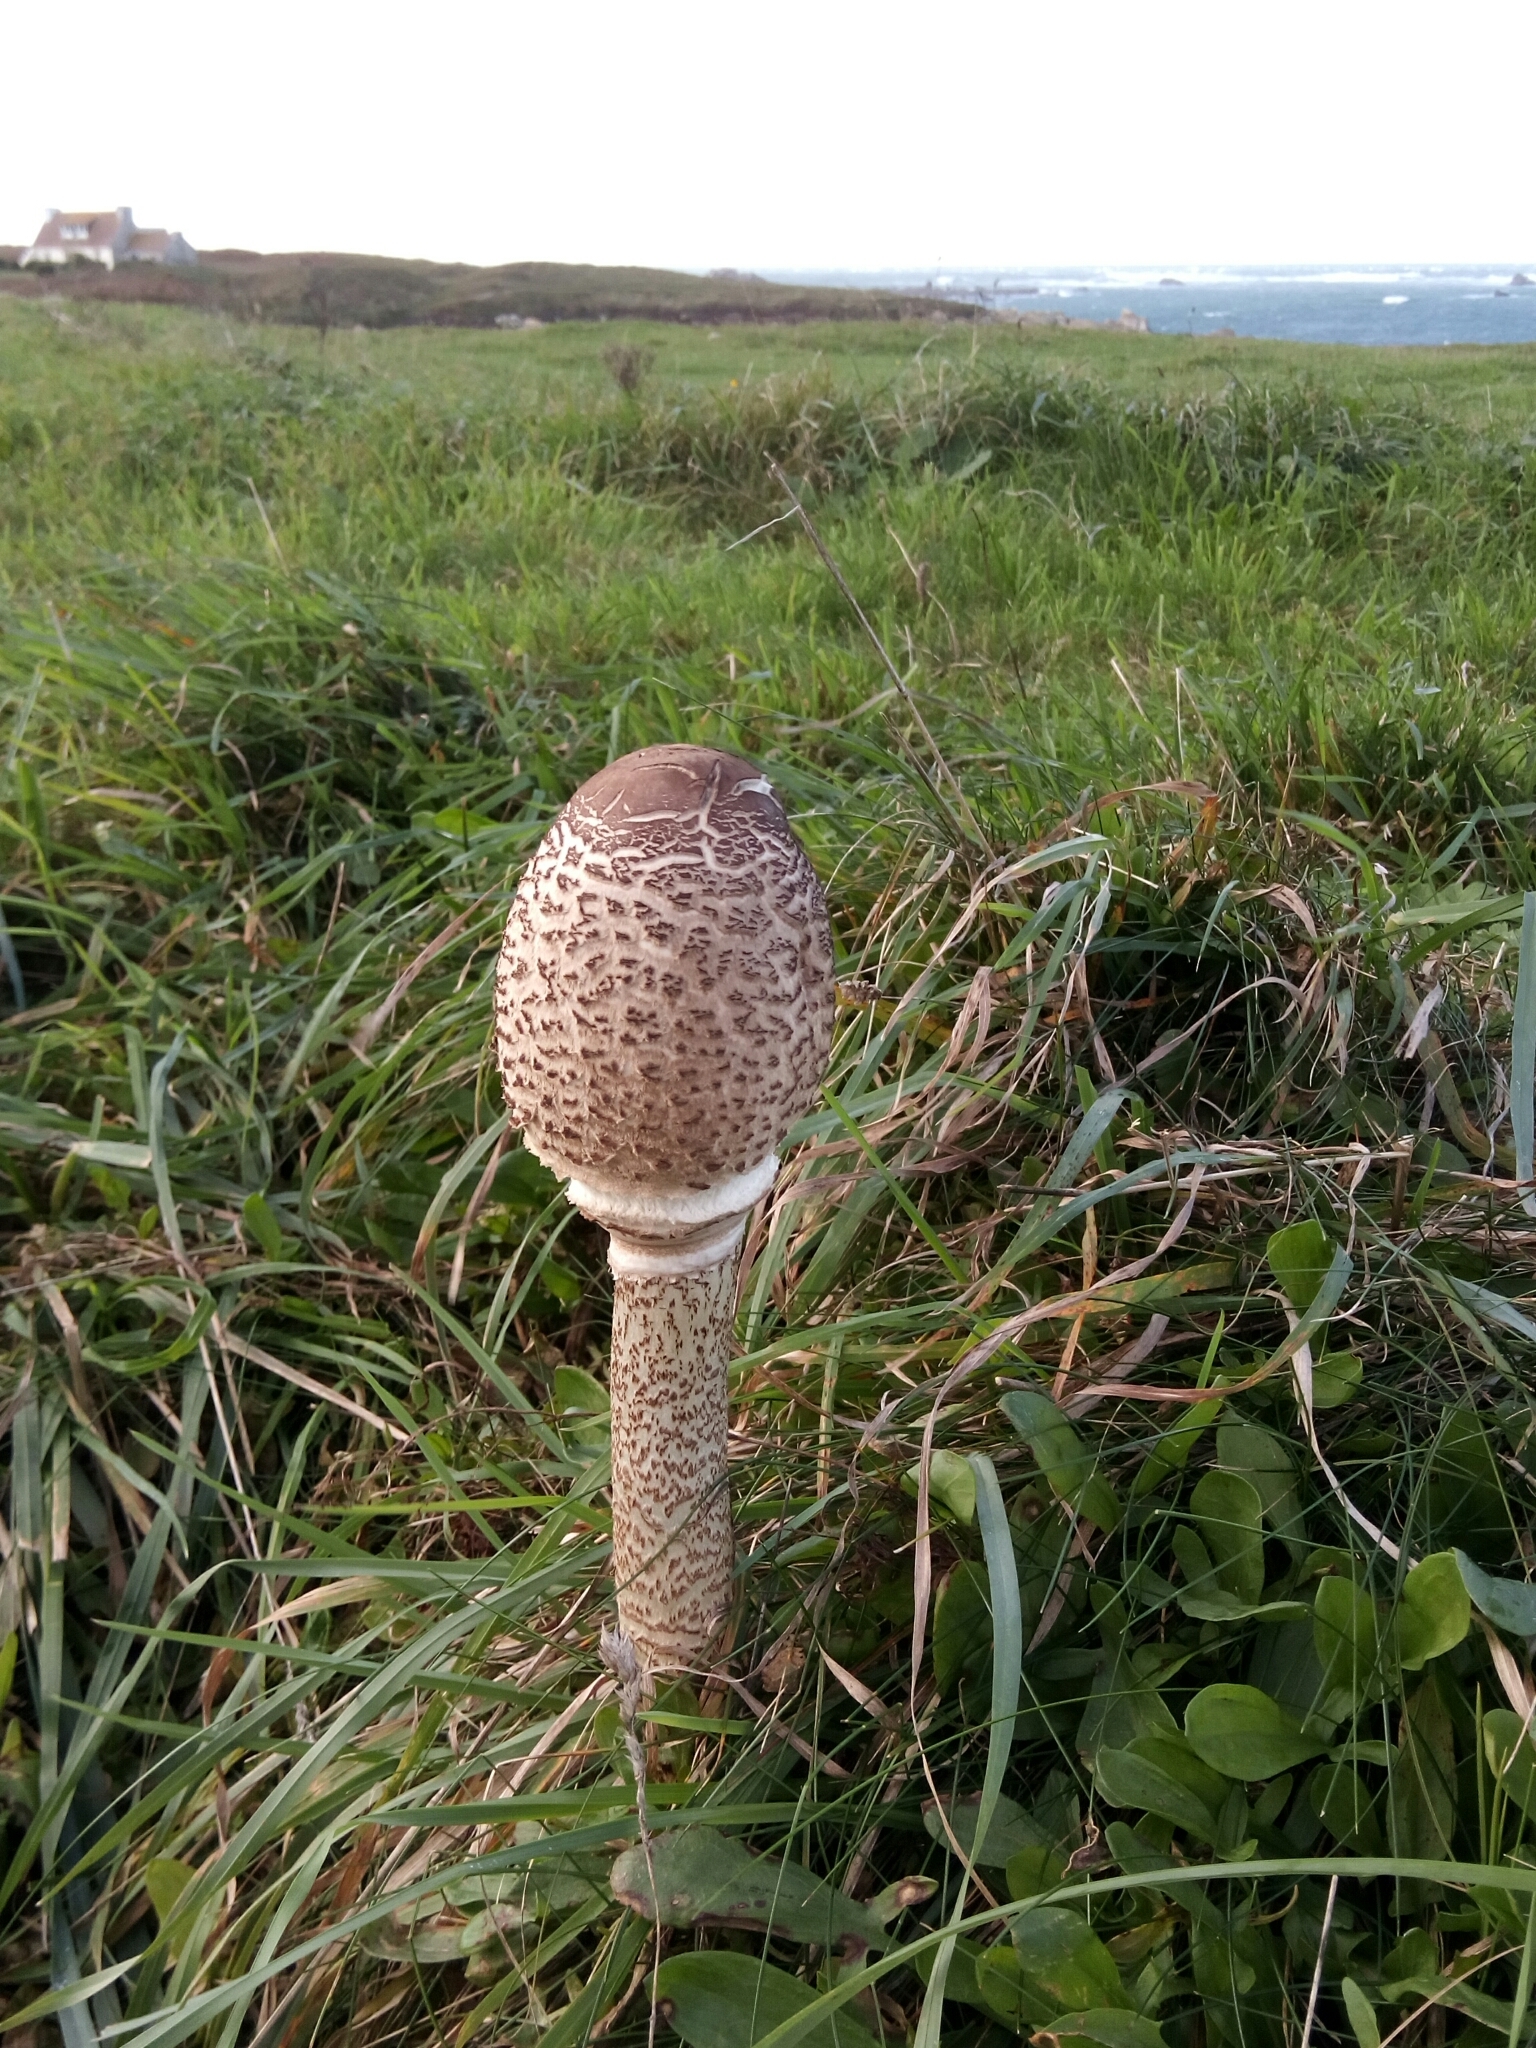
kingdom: Fungi
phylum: Basidiomycota
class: Agaricomycetes
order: Agaricales
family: Agaricaceae
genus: Macrolepiota
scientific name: Macrolepiota procera
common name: Parasol
